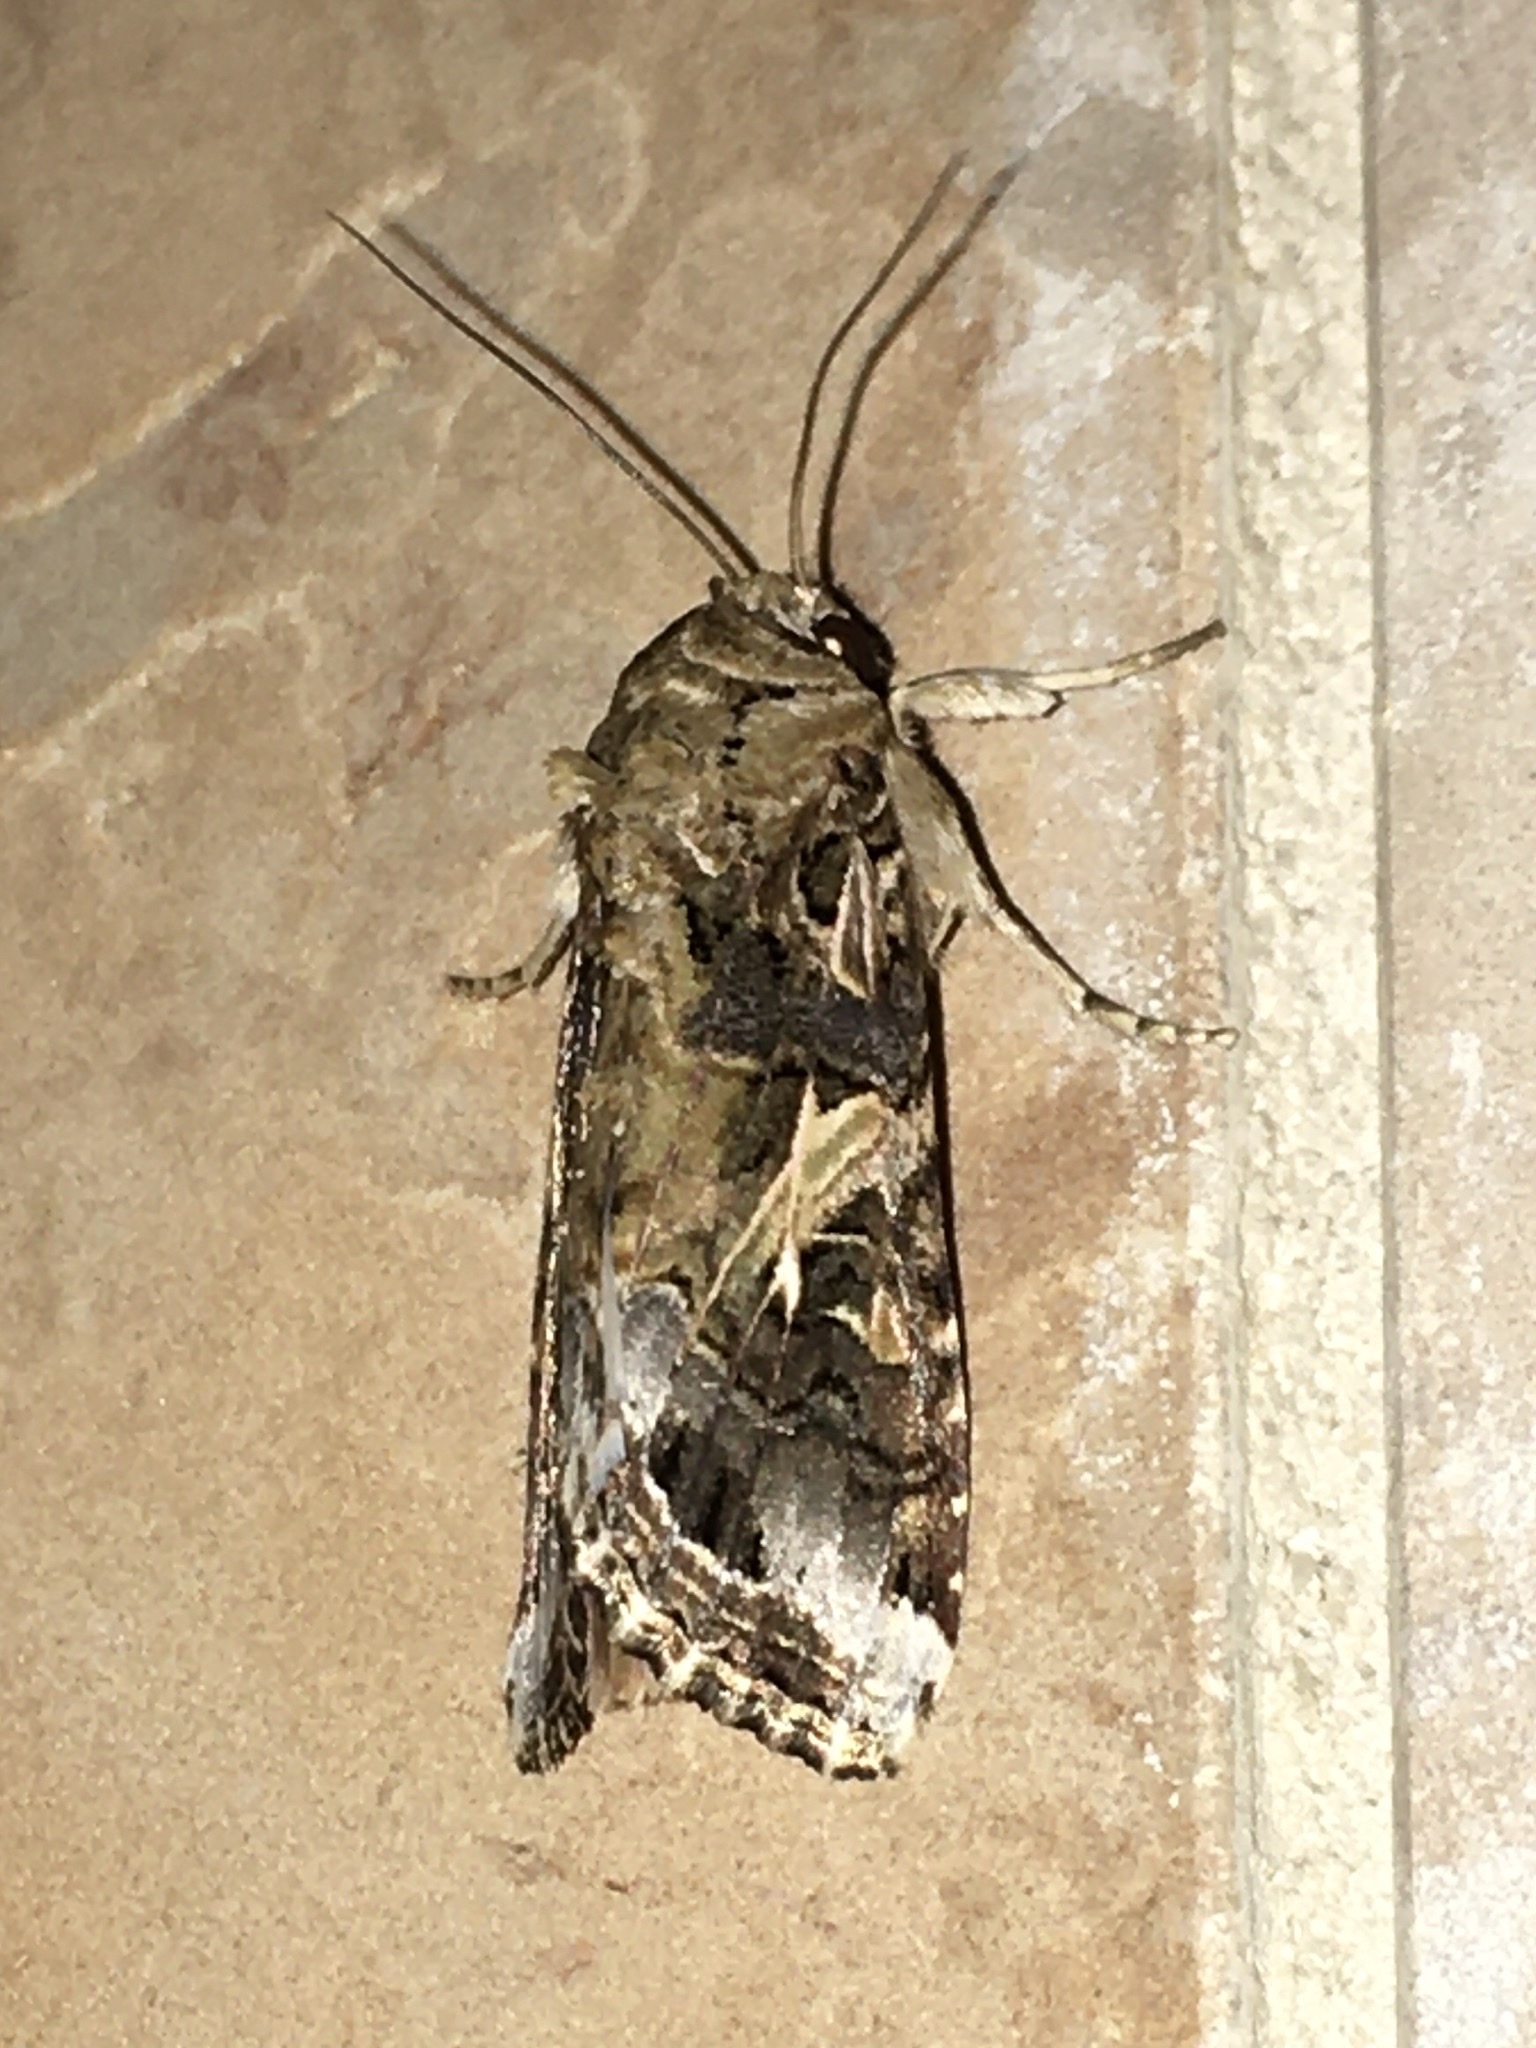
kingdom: Animalia
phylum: Arthropoda
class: Insecta
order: Lepidoptera
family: Noctuidae
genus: Spodoptera
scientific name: Spodoptera ornithogalli
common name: Yellow-striped armyworm
